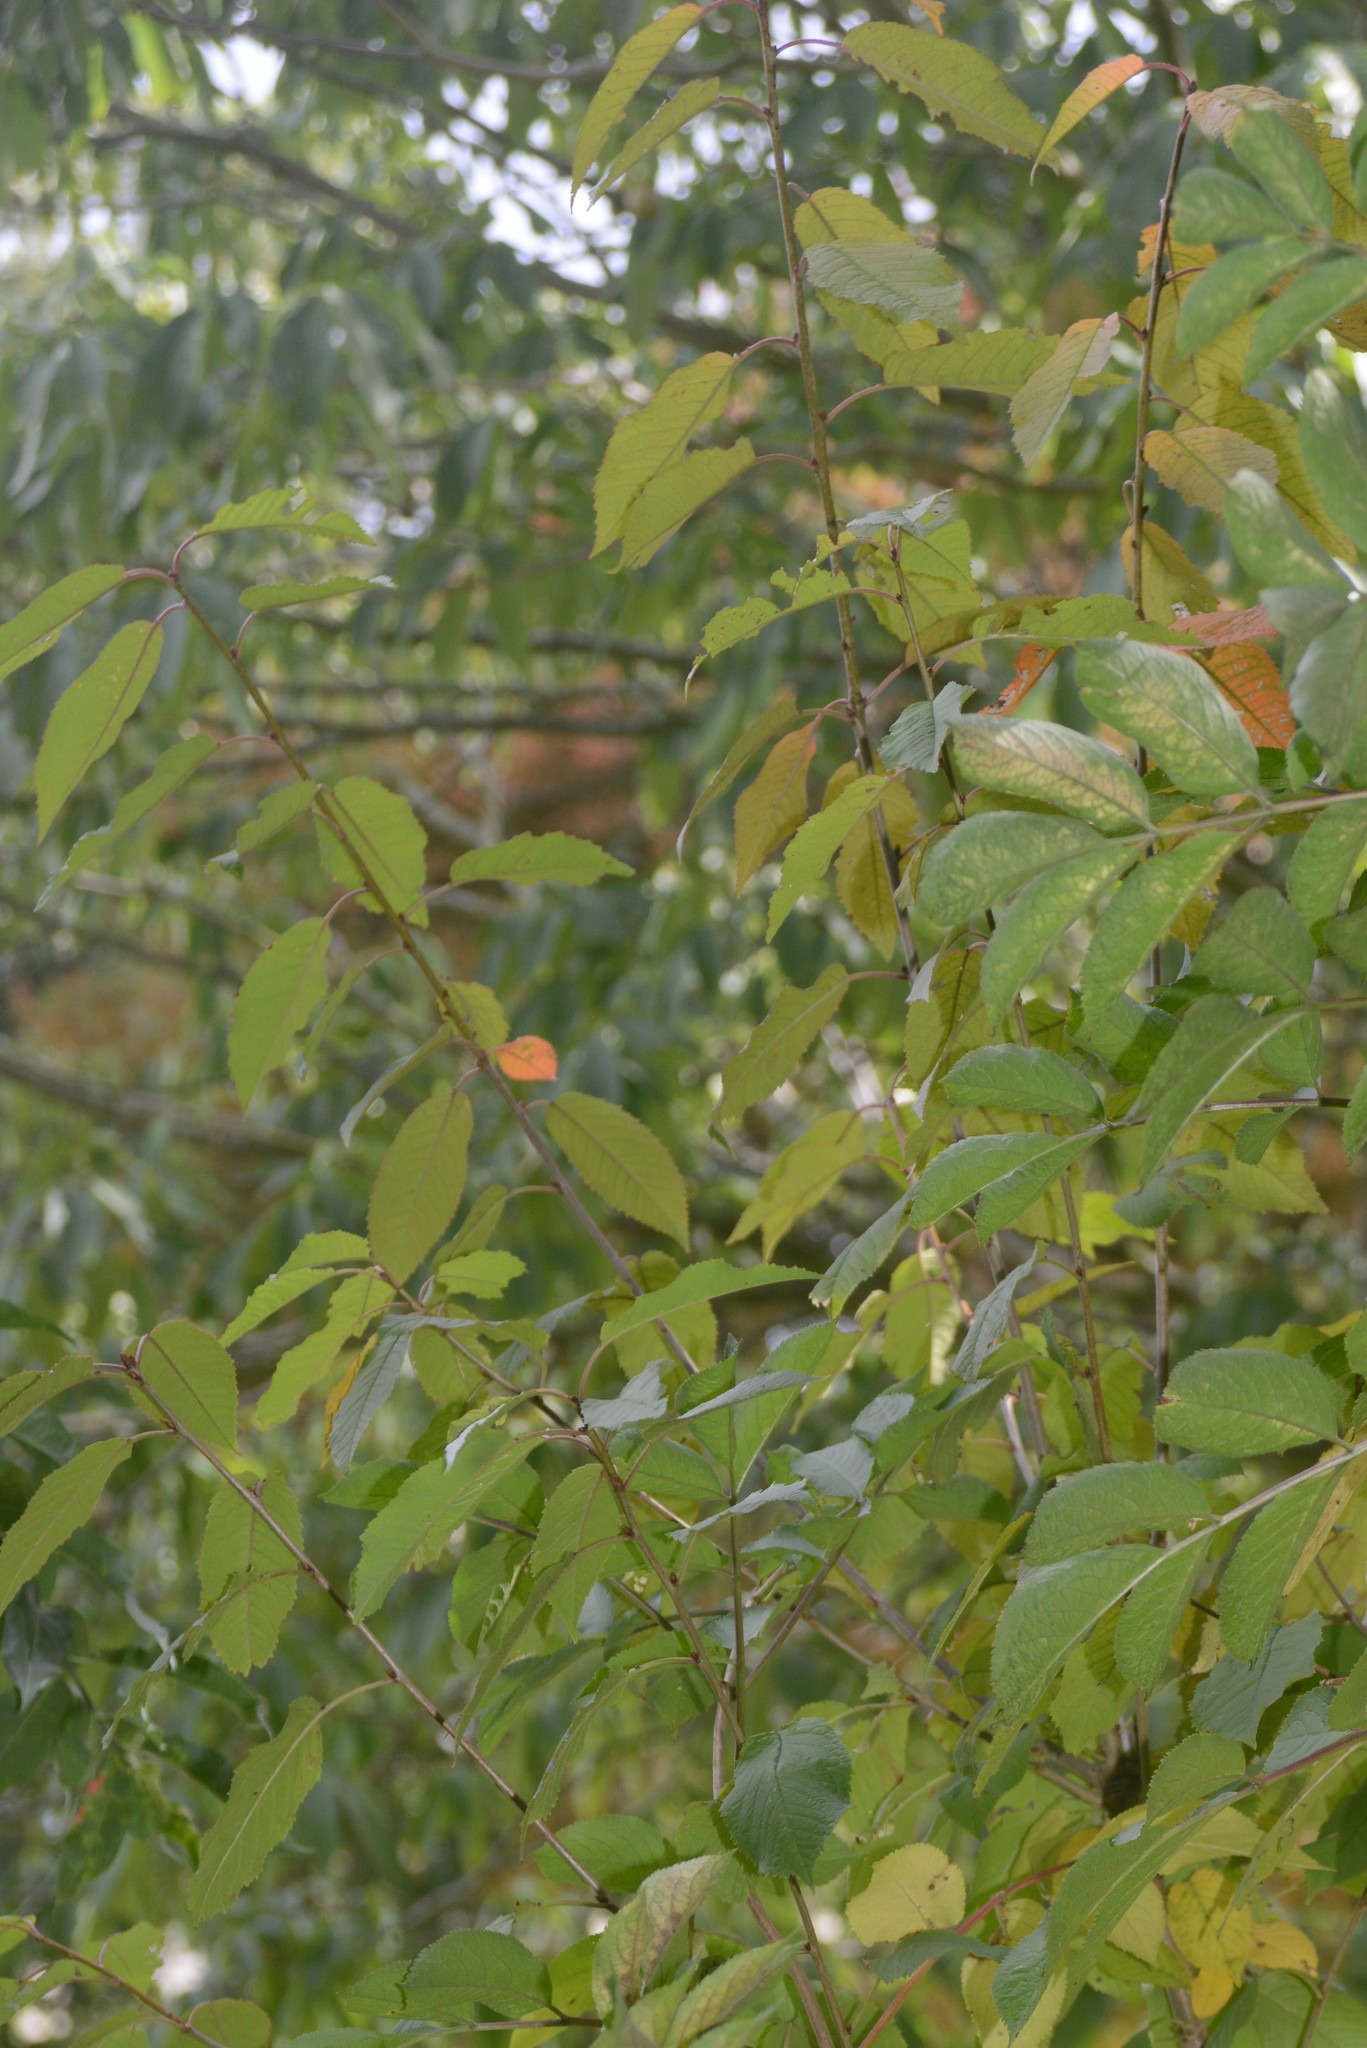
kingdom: Plantae
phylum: Tracheophyta
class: Magnoliopsida
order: Rosales
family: Rosaceae
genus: Prunus
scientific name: Prunus avium
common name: Sweet cherry
